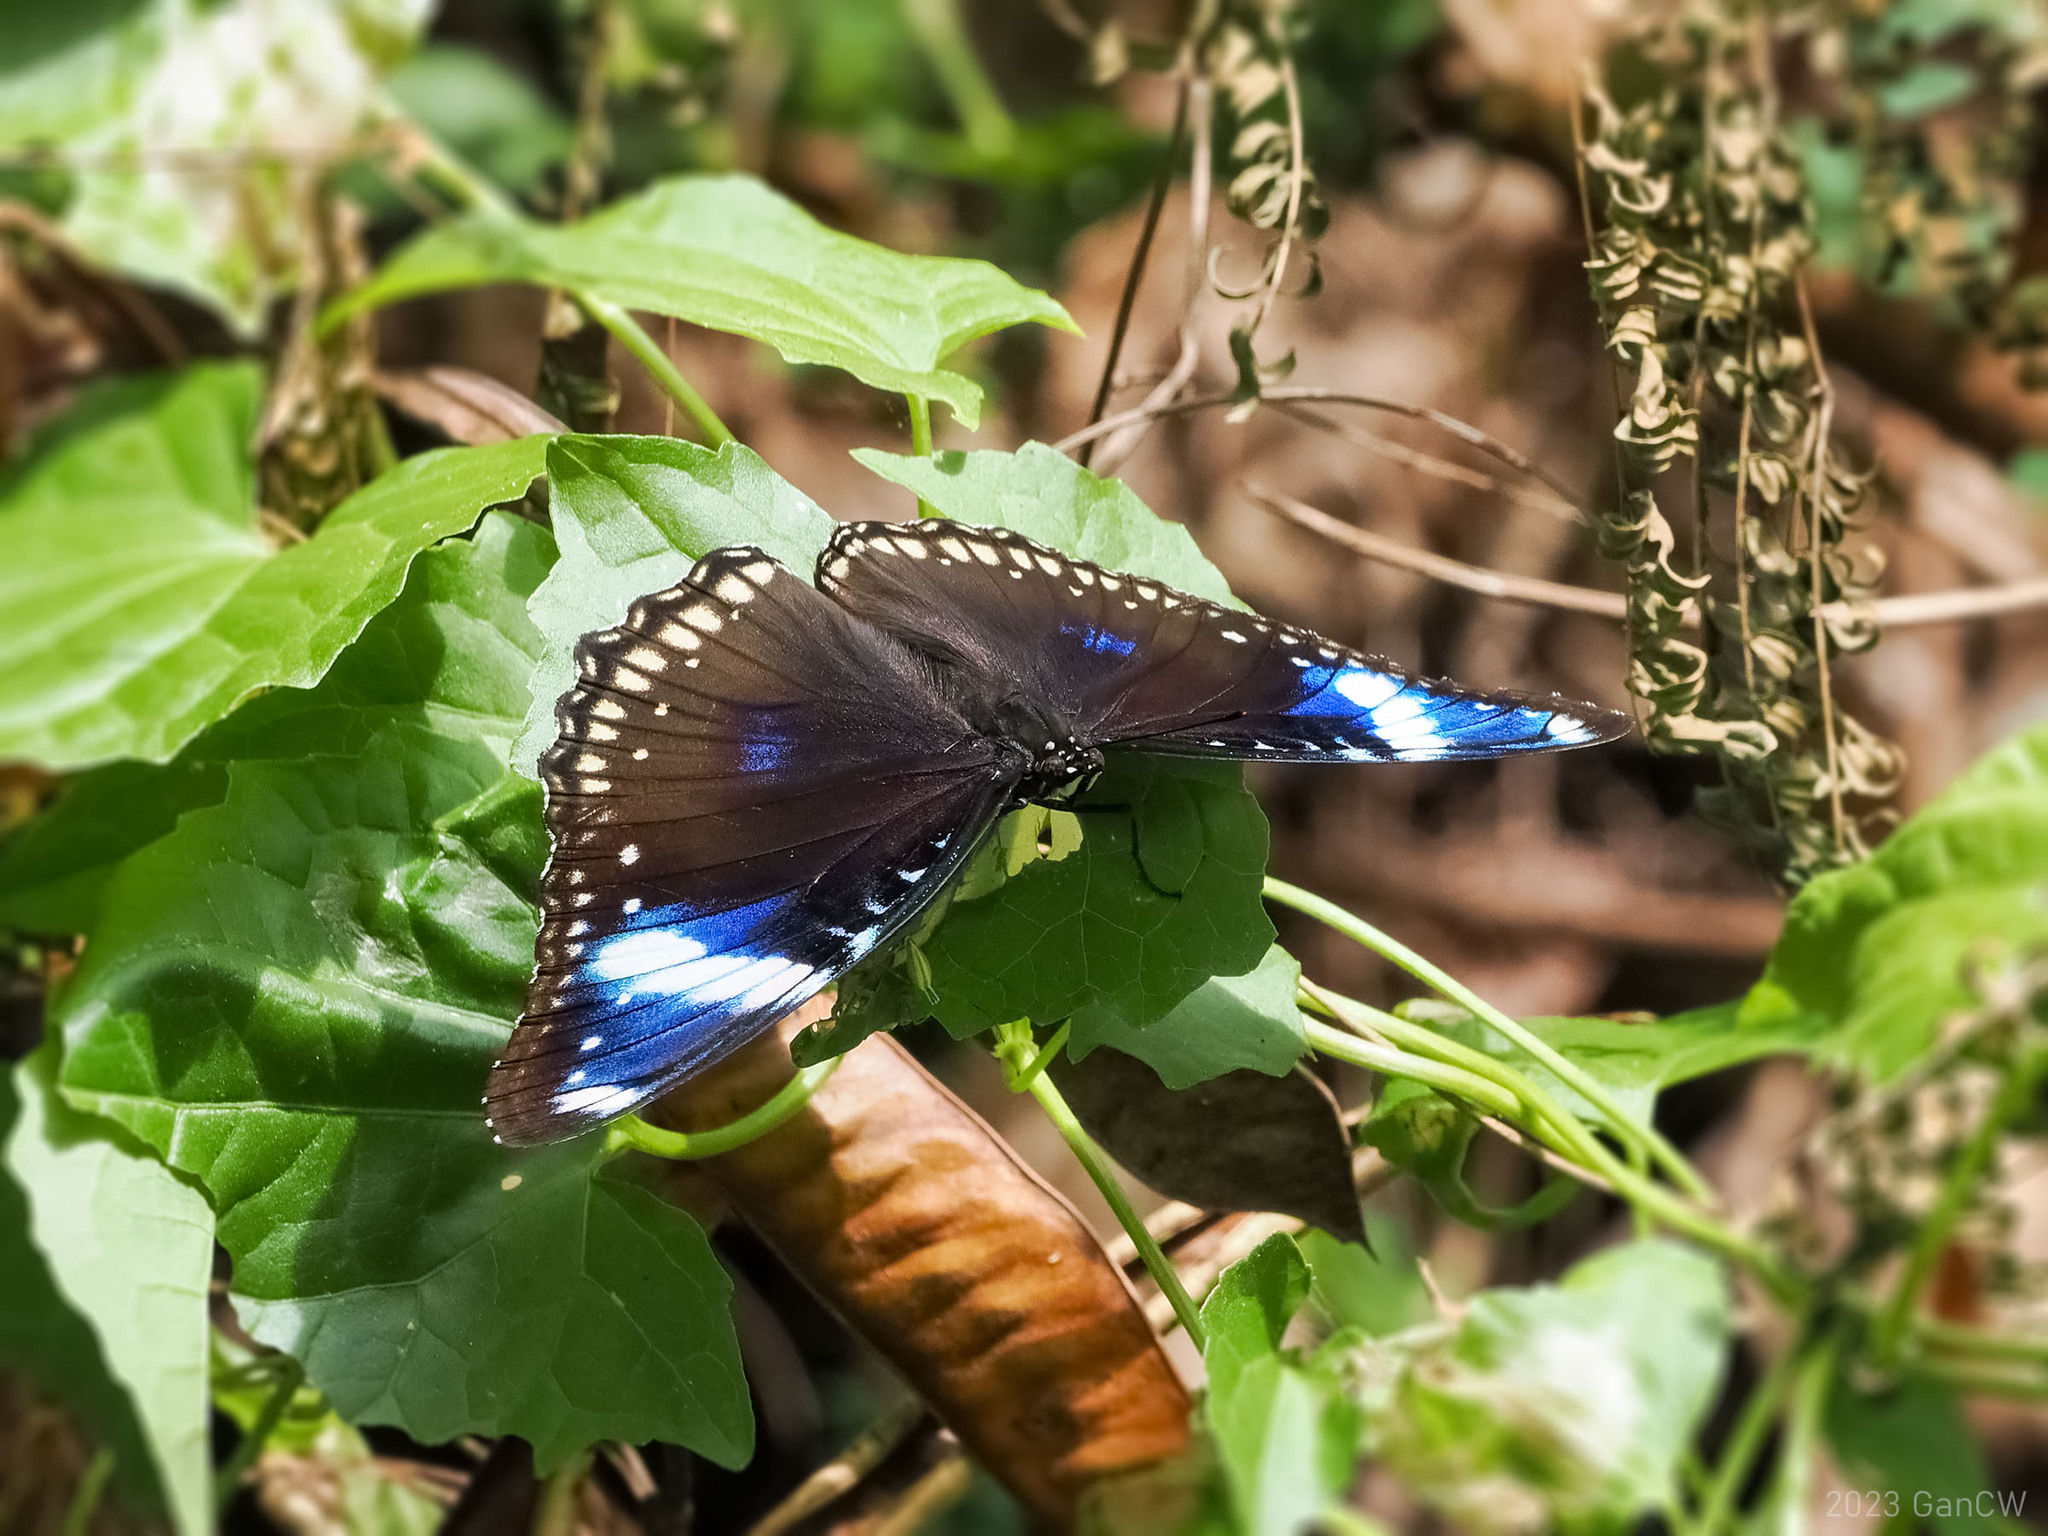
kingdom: Animalia
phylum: Arthropoda
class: Insecta
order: Lepidoptera
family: Nymphalidae
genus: Hypolimnas
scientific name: Hypolimnas bolina
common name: Great eggfly
